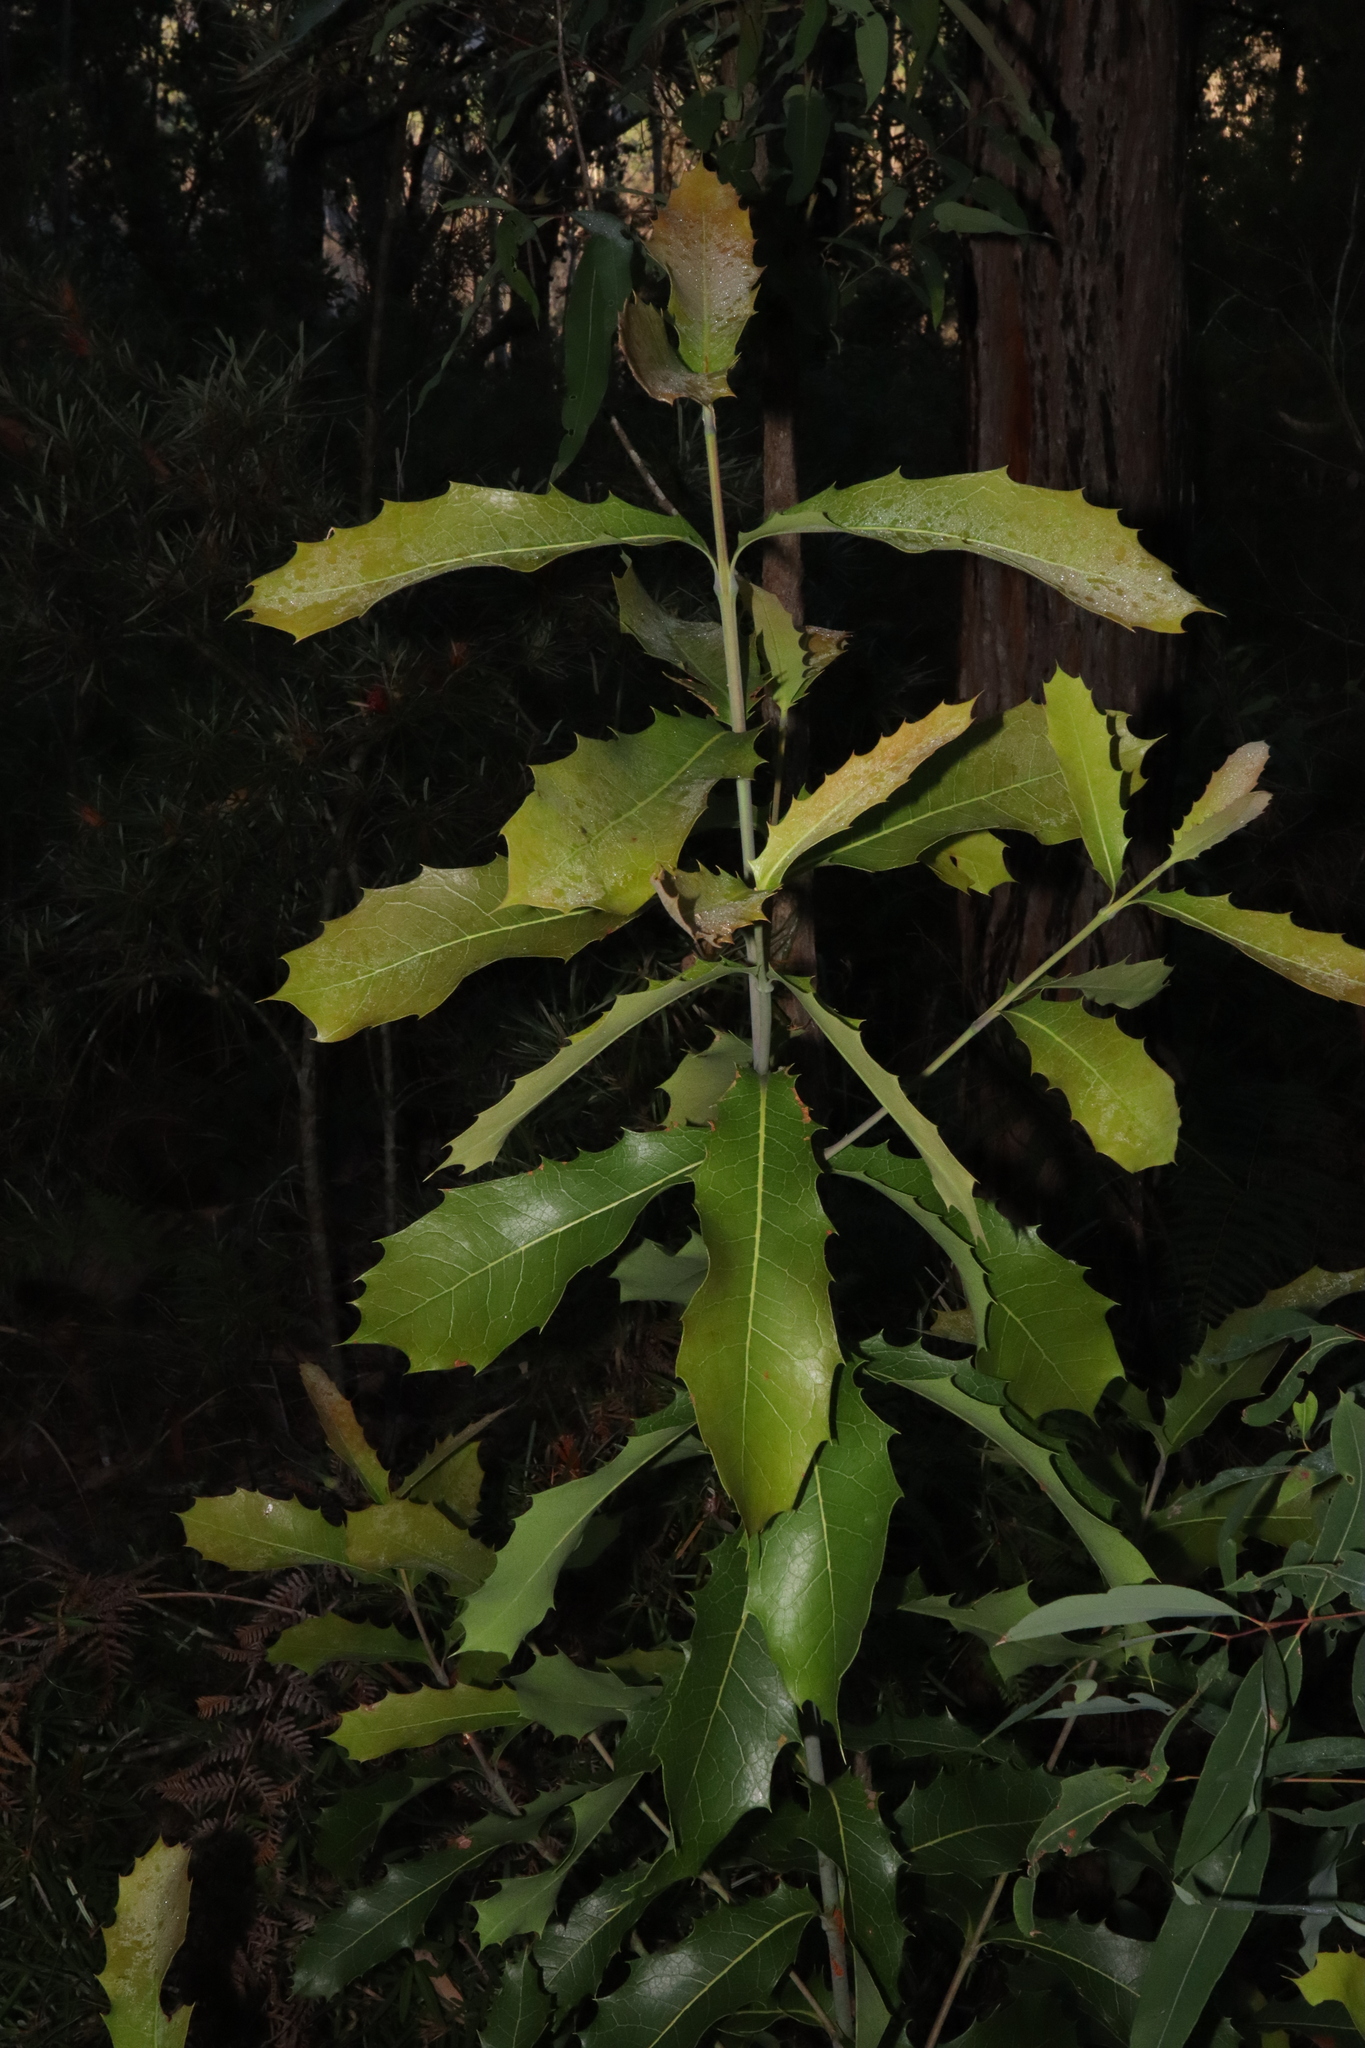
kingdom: Plantae
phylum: Tracheophyta
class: Magnoliopsida
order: Proteales
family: Proteaceae
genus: Xylomelum
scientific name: Xylomelum pyriforme
